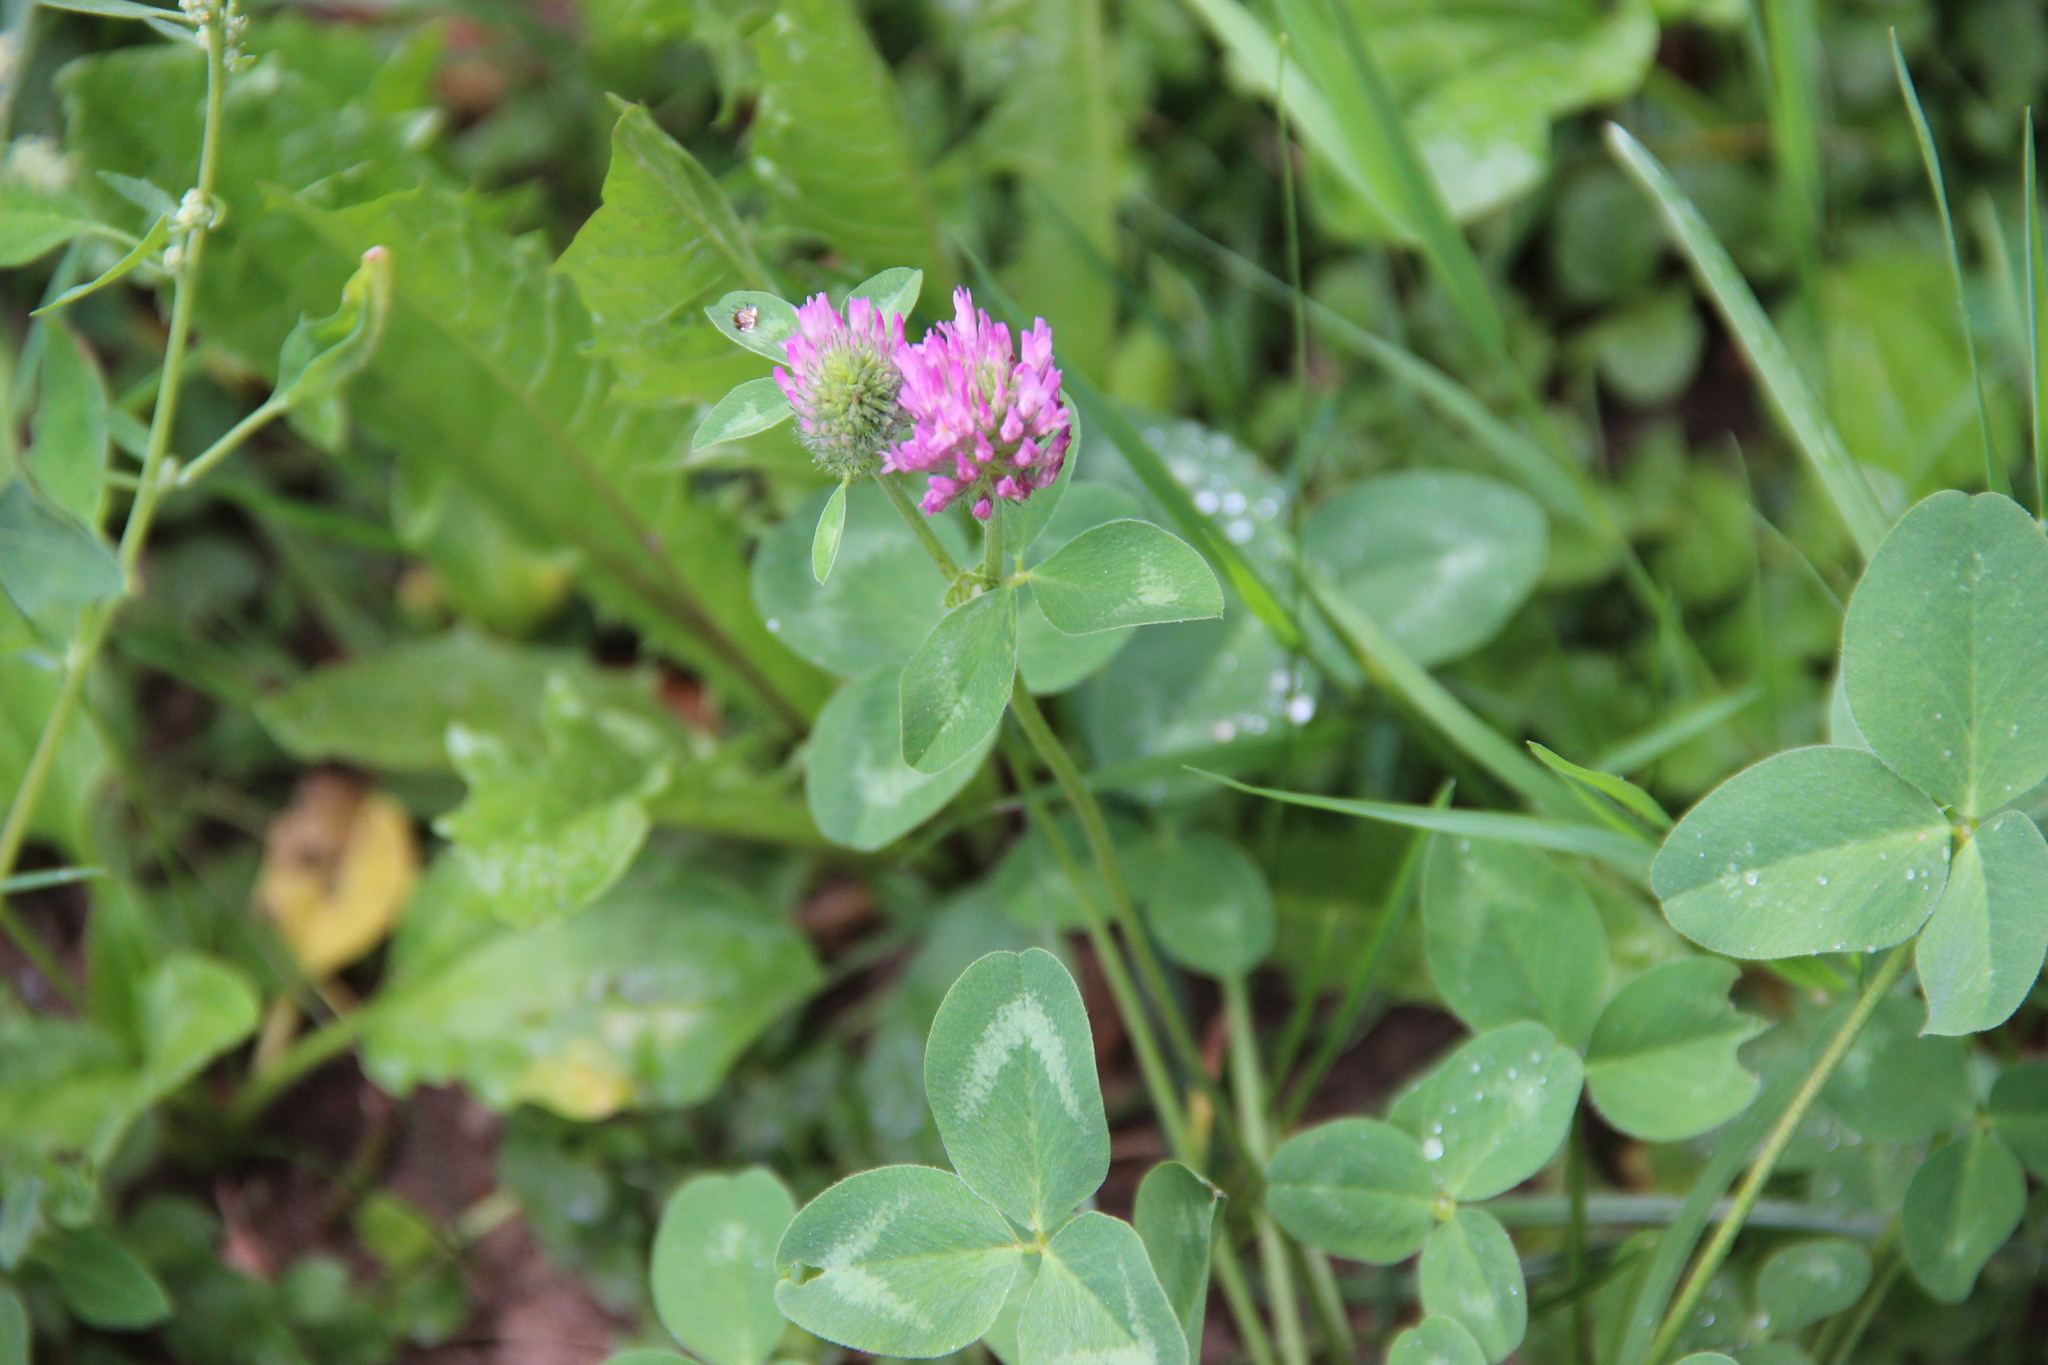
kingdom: Plantae
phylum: Tracheophyta
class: Magnoliopsida
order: Fabales
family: Fabaceae
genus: Trifolium
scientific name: Trifolium pratense
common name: Red clover
